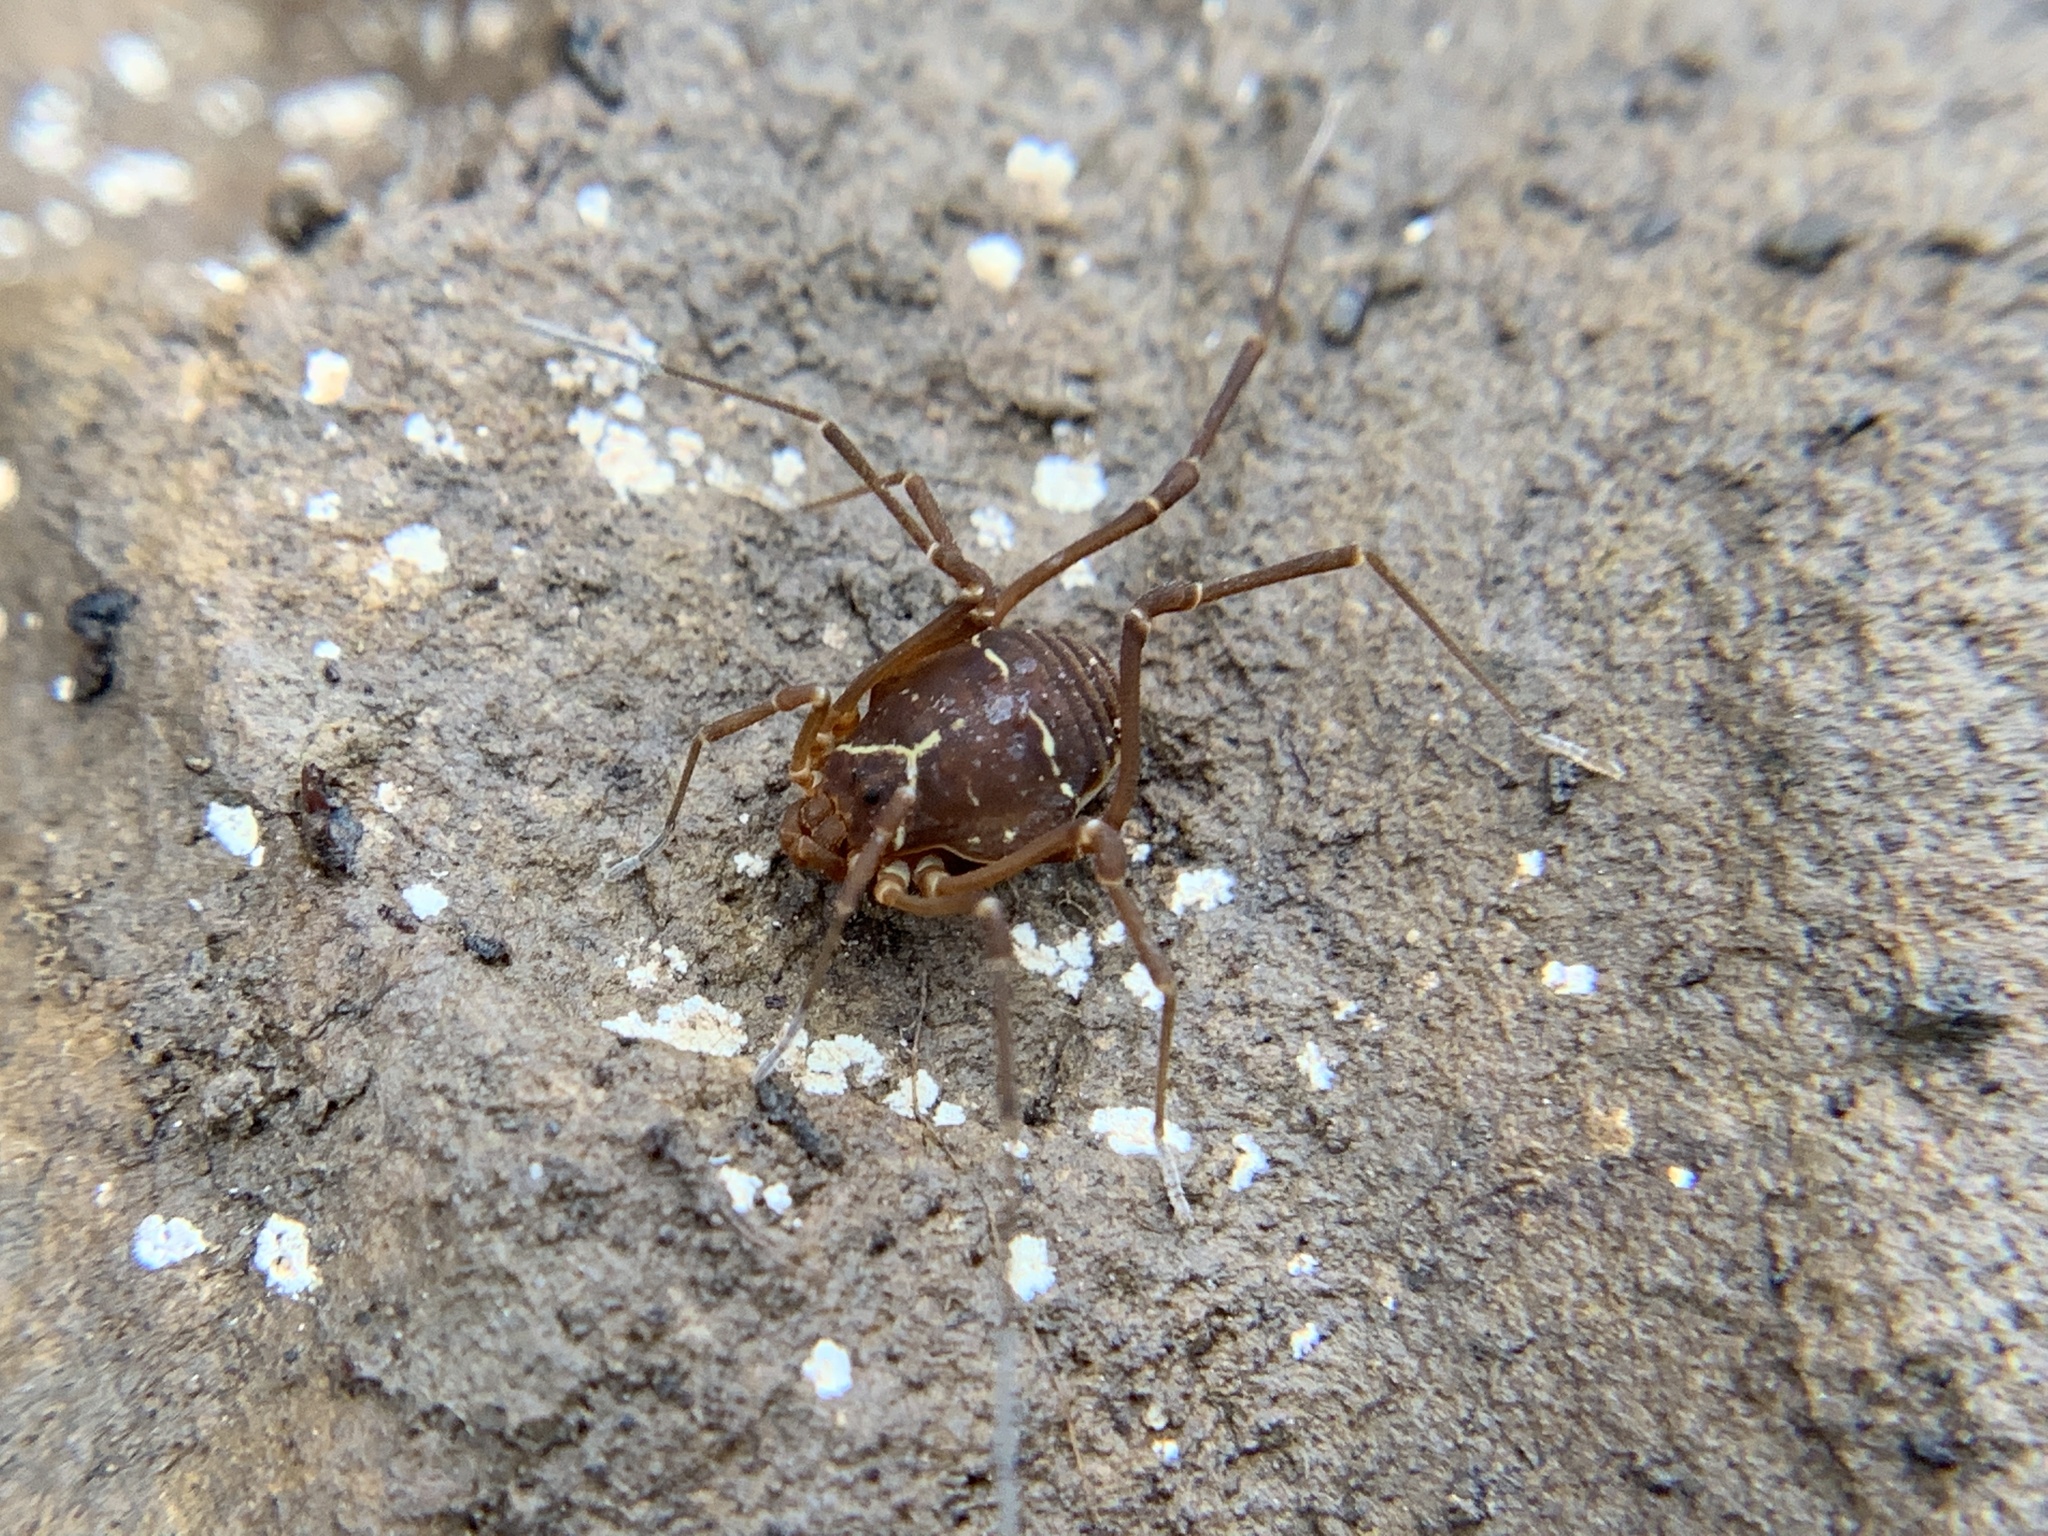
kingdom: Animalia
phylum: Arthropoda
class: Arachnida
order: Opiliones
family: Cosmetidae
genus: Libitioides
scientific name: Libitioides sayi
